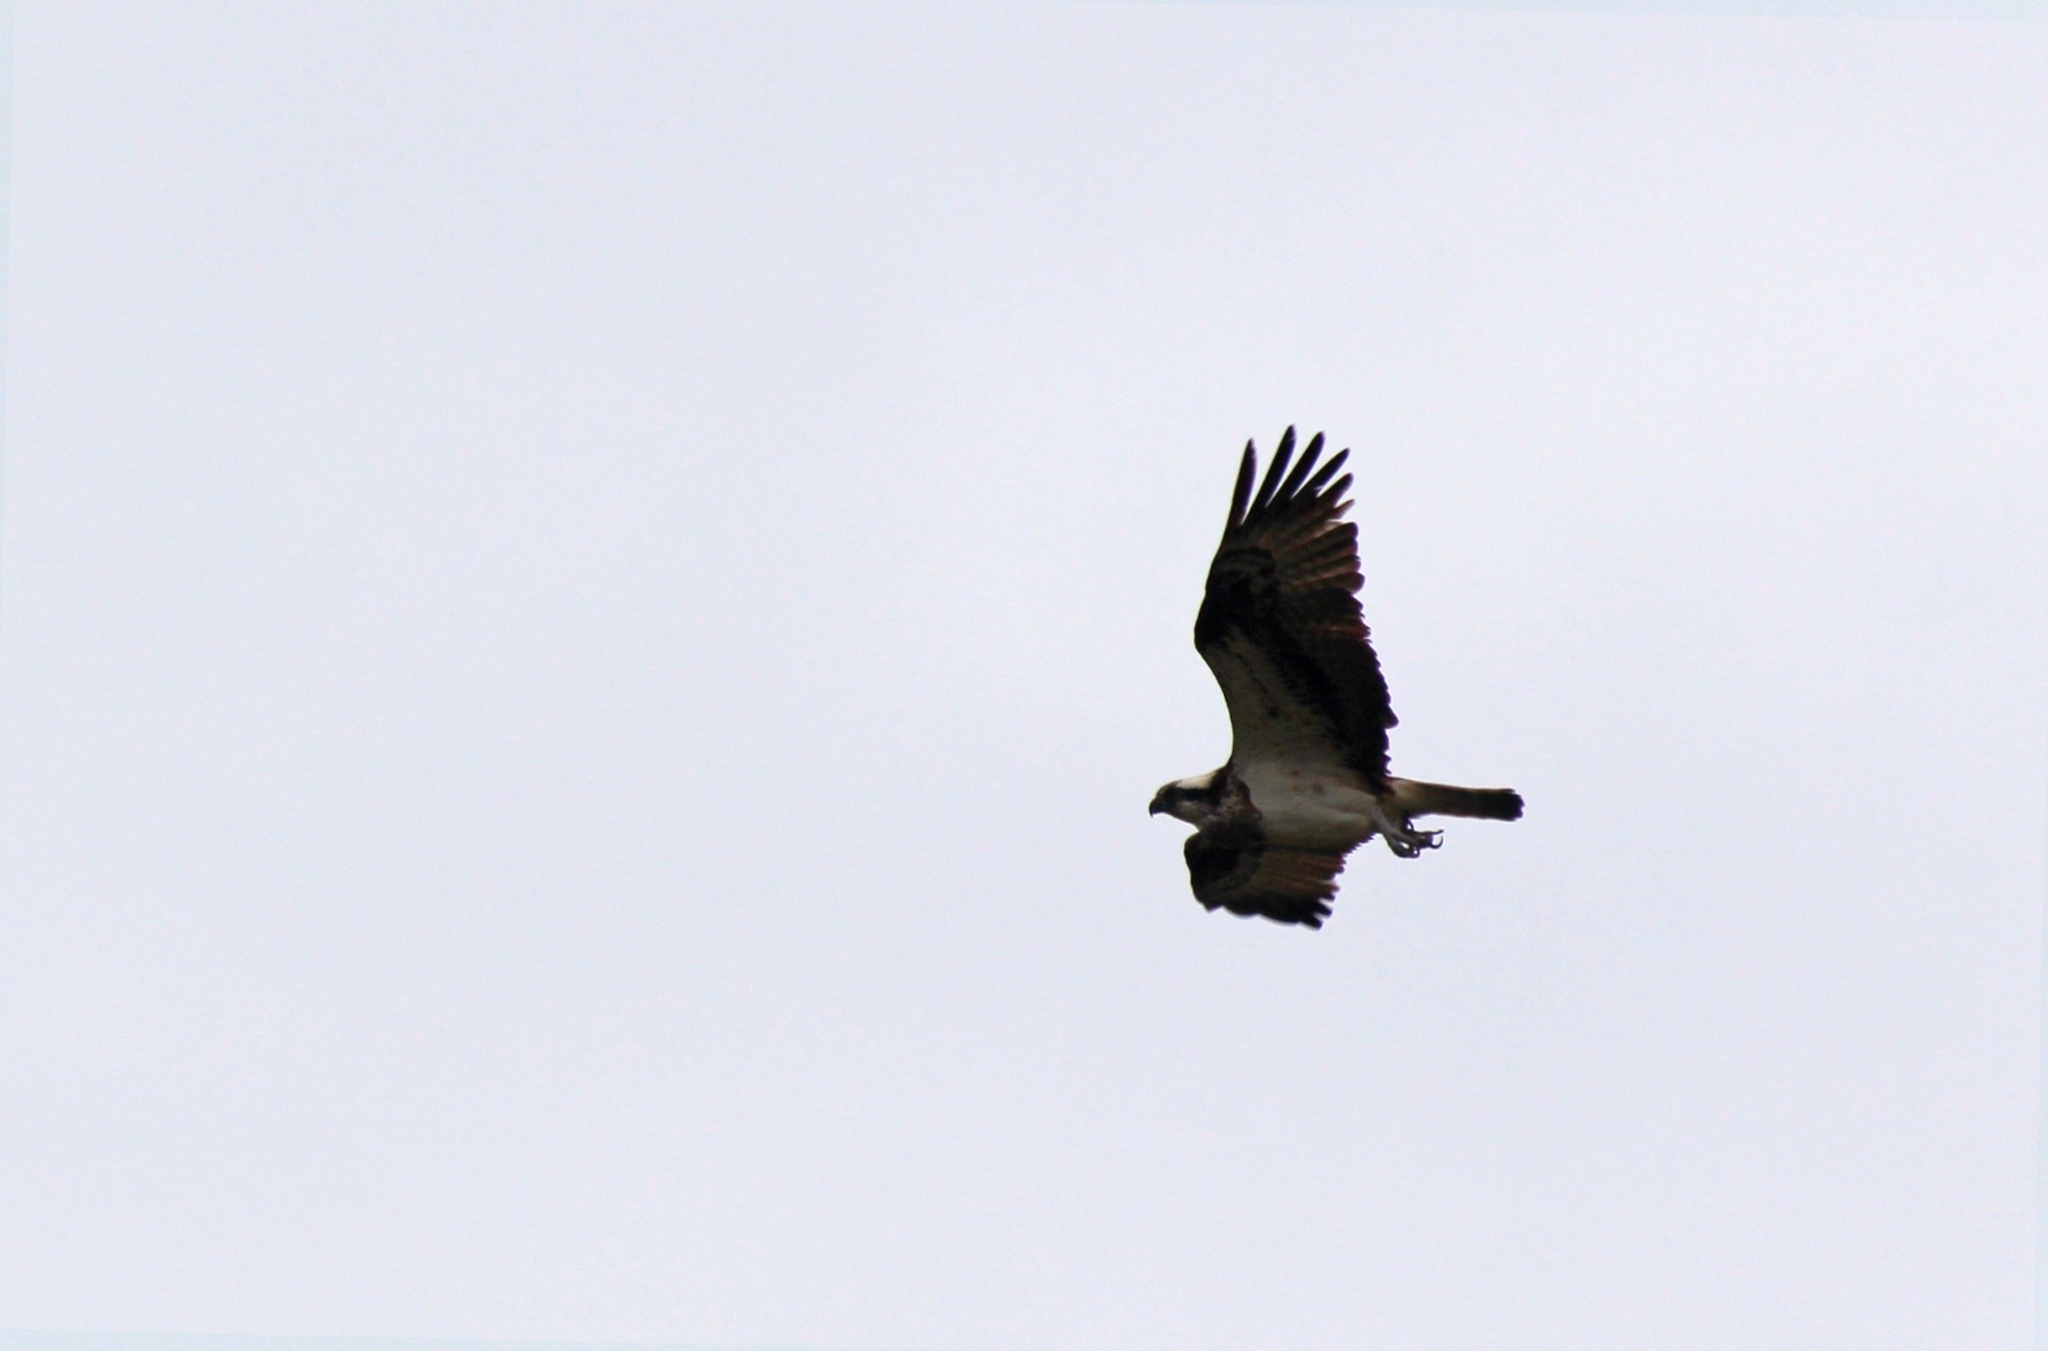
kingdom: Animalia
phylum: Chordata
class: Aves
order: Accipitriformes
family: Pandionidae
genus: Pandion
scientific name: Pandion haliaetus
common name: Osprey
